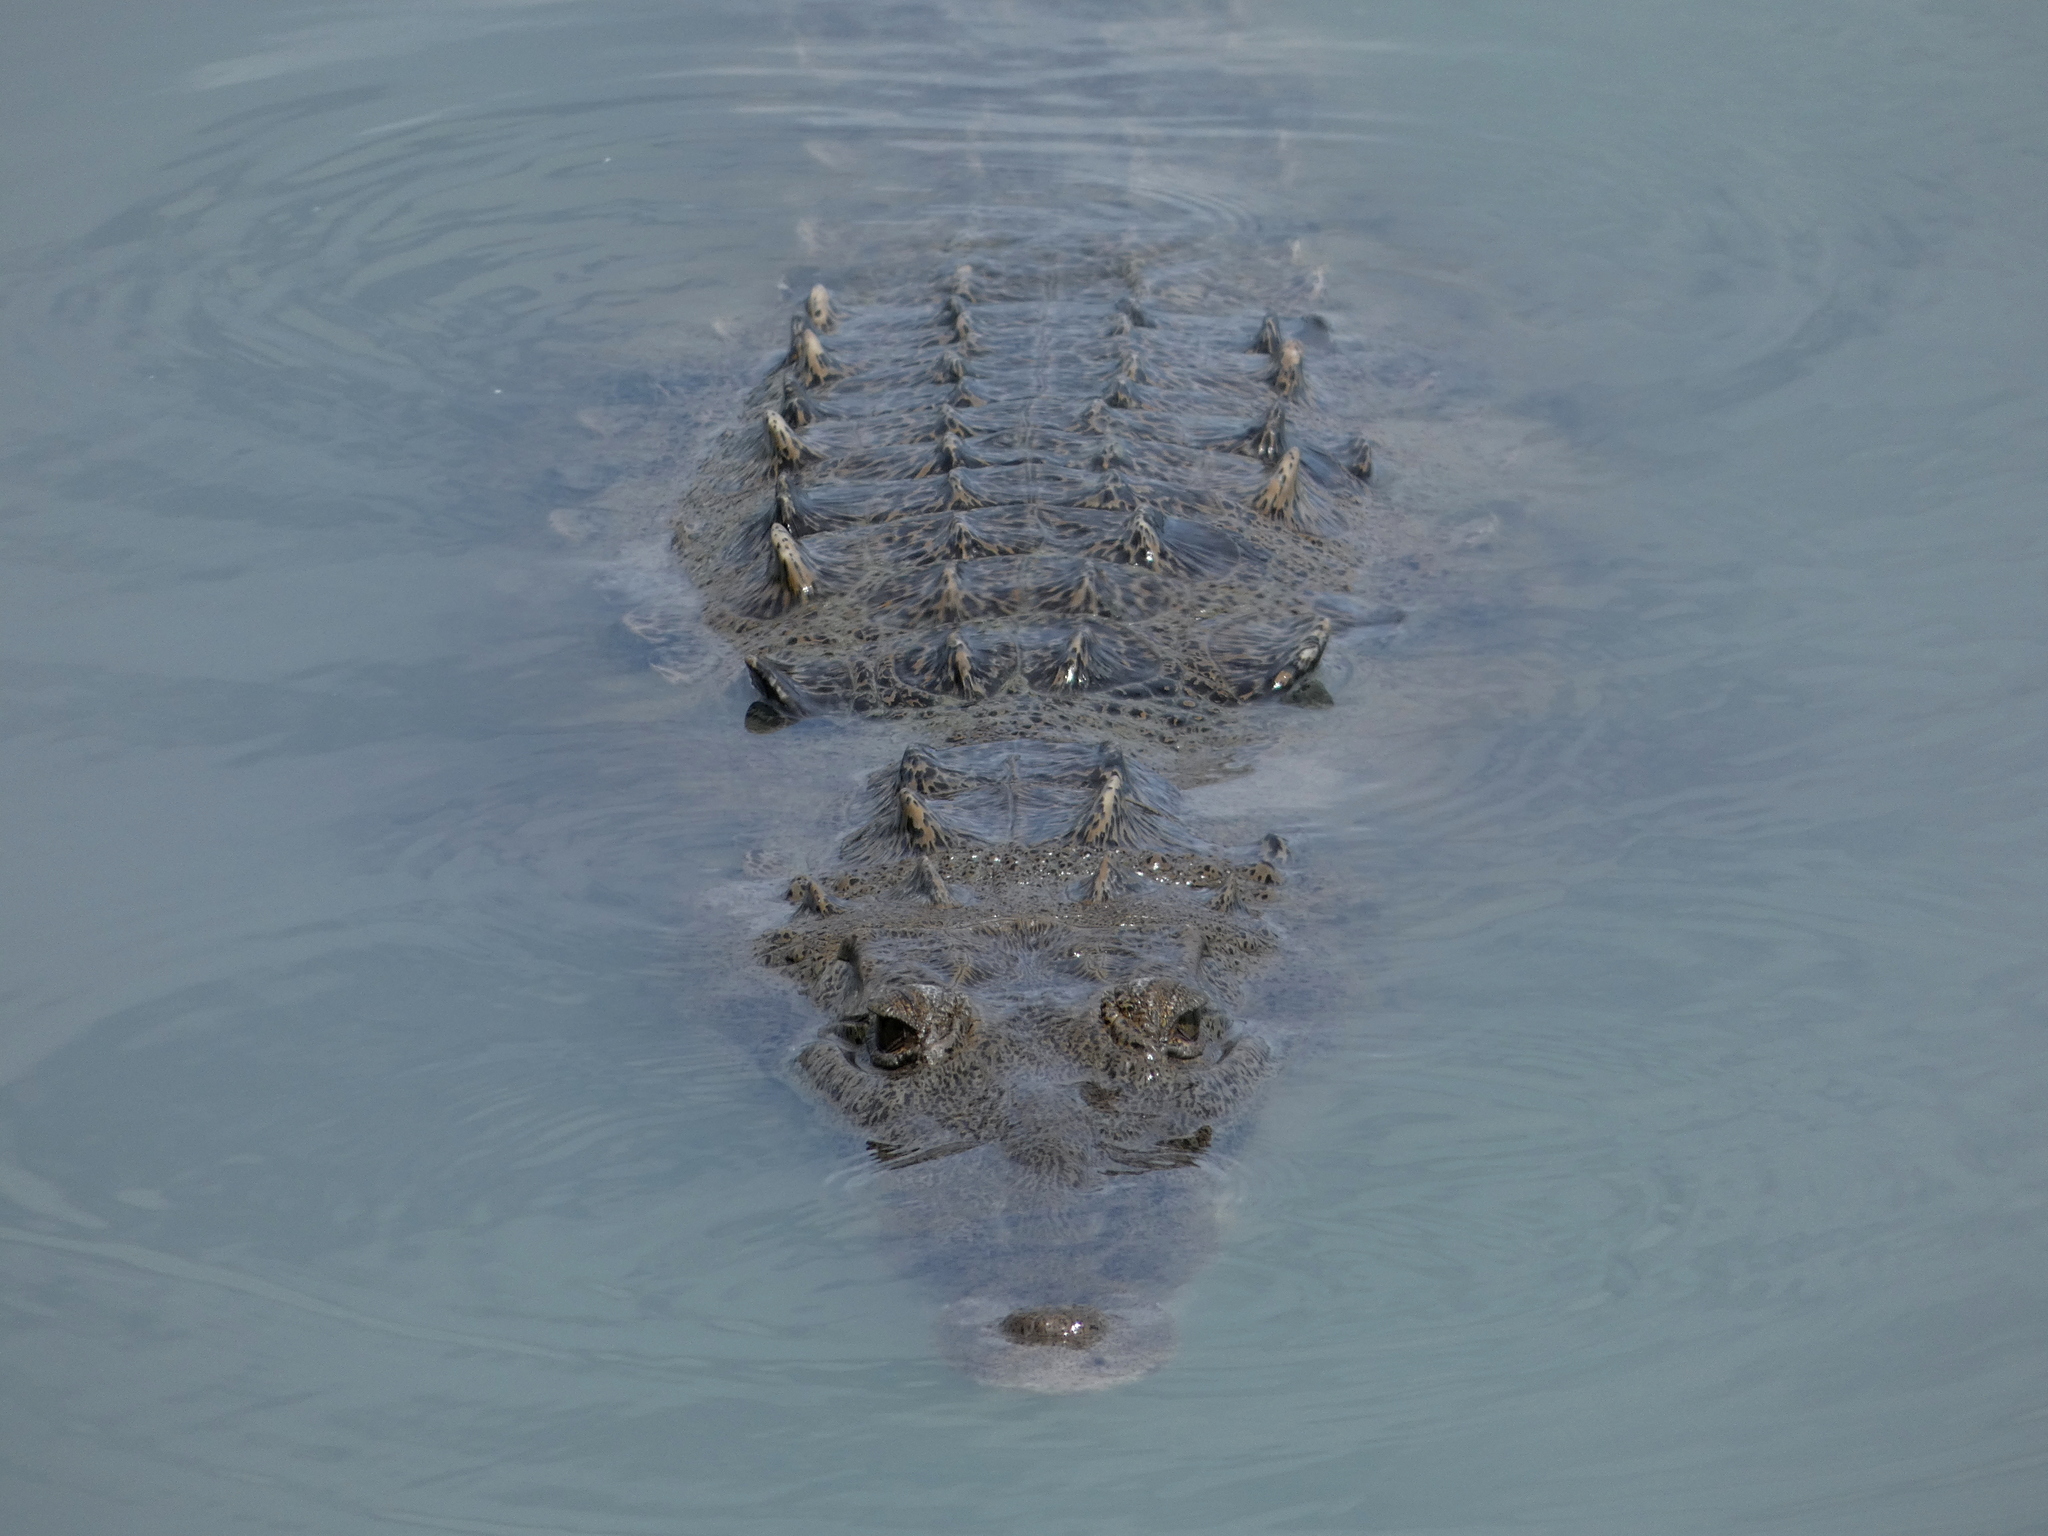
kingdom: Animalia
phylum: Chordata
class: Crocodylia
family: Crocodylidae
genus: Crocodylus
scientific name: Crocodylus acutus
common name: American crocodile
